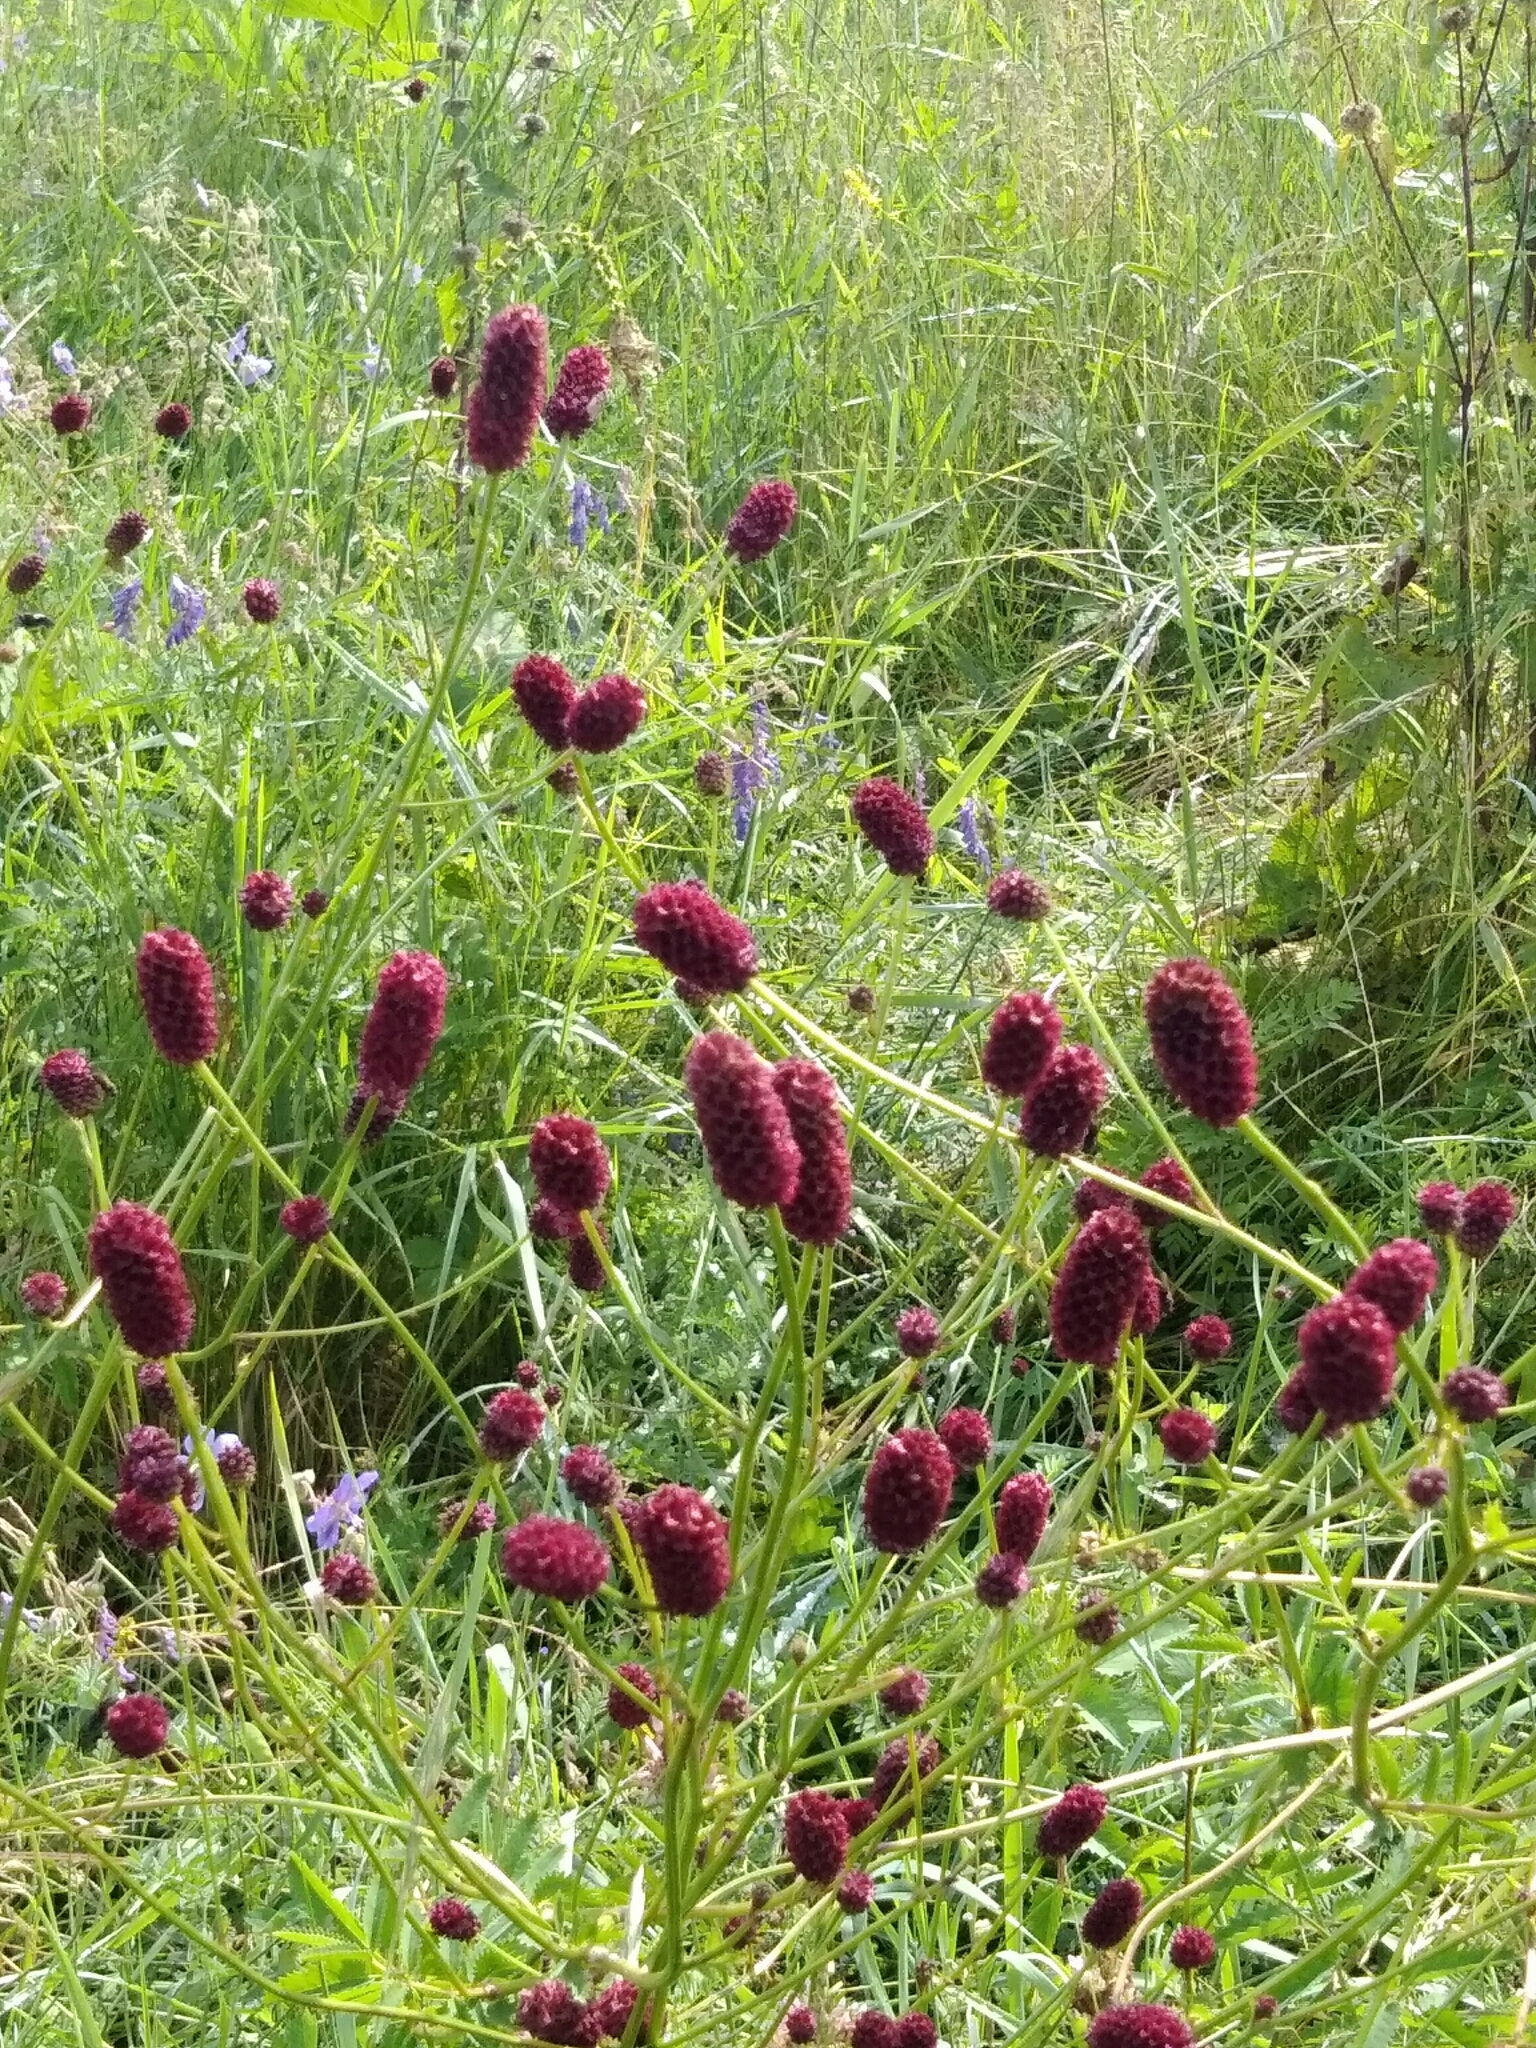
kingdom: Plantae
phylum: Tracheophyta
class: Magnoliopsida
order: Rosales
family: Rosaceae
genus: Sanguisorba
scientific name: Sanguisorba officinalis
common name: Great burnet
